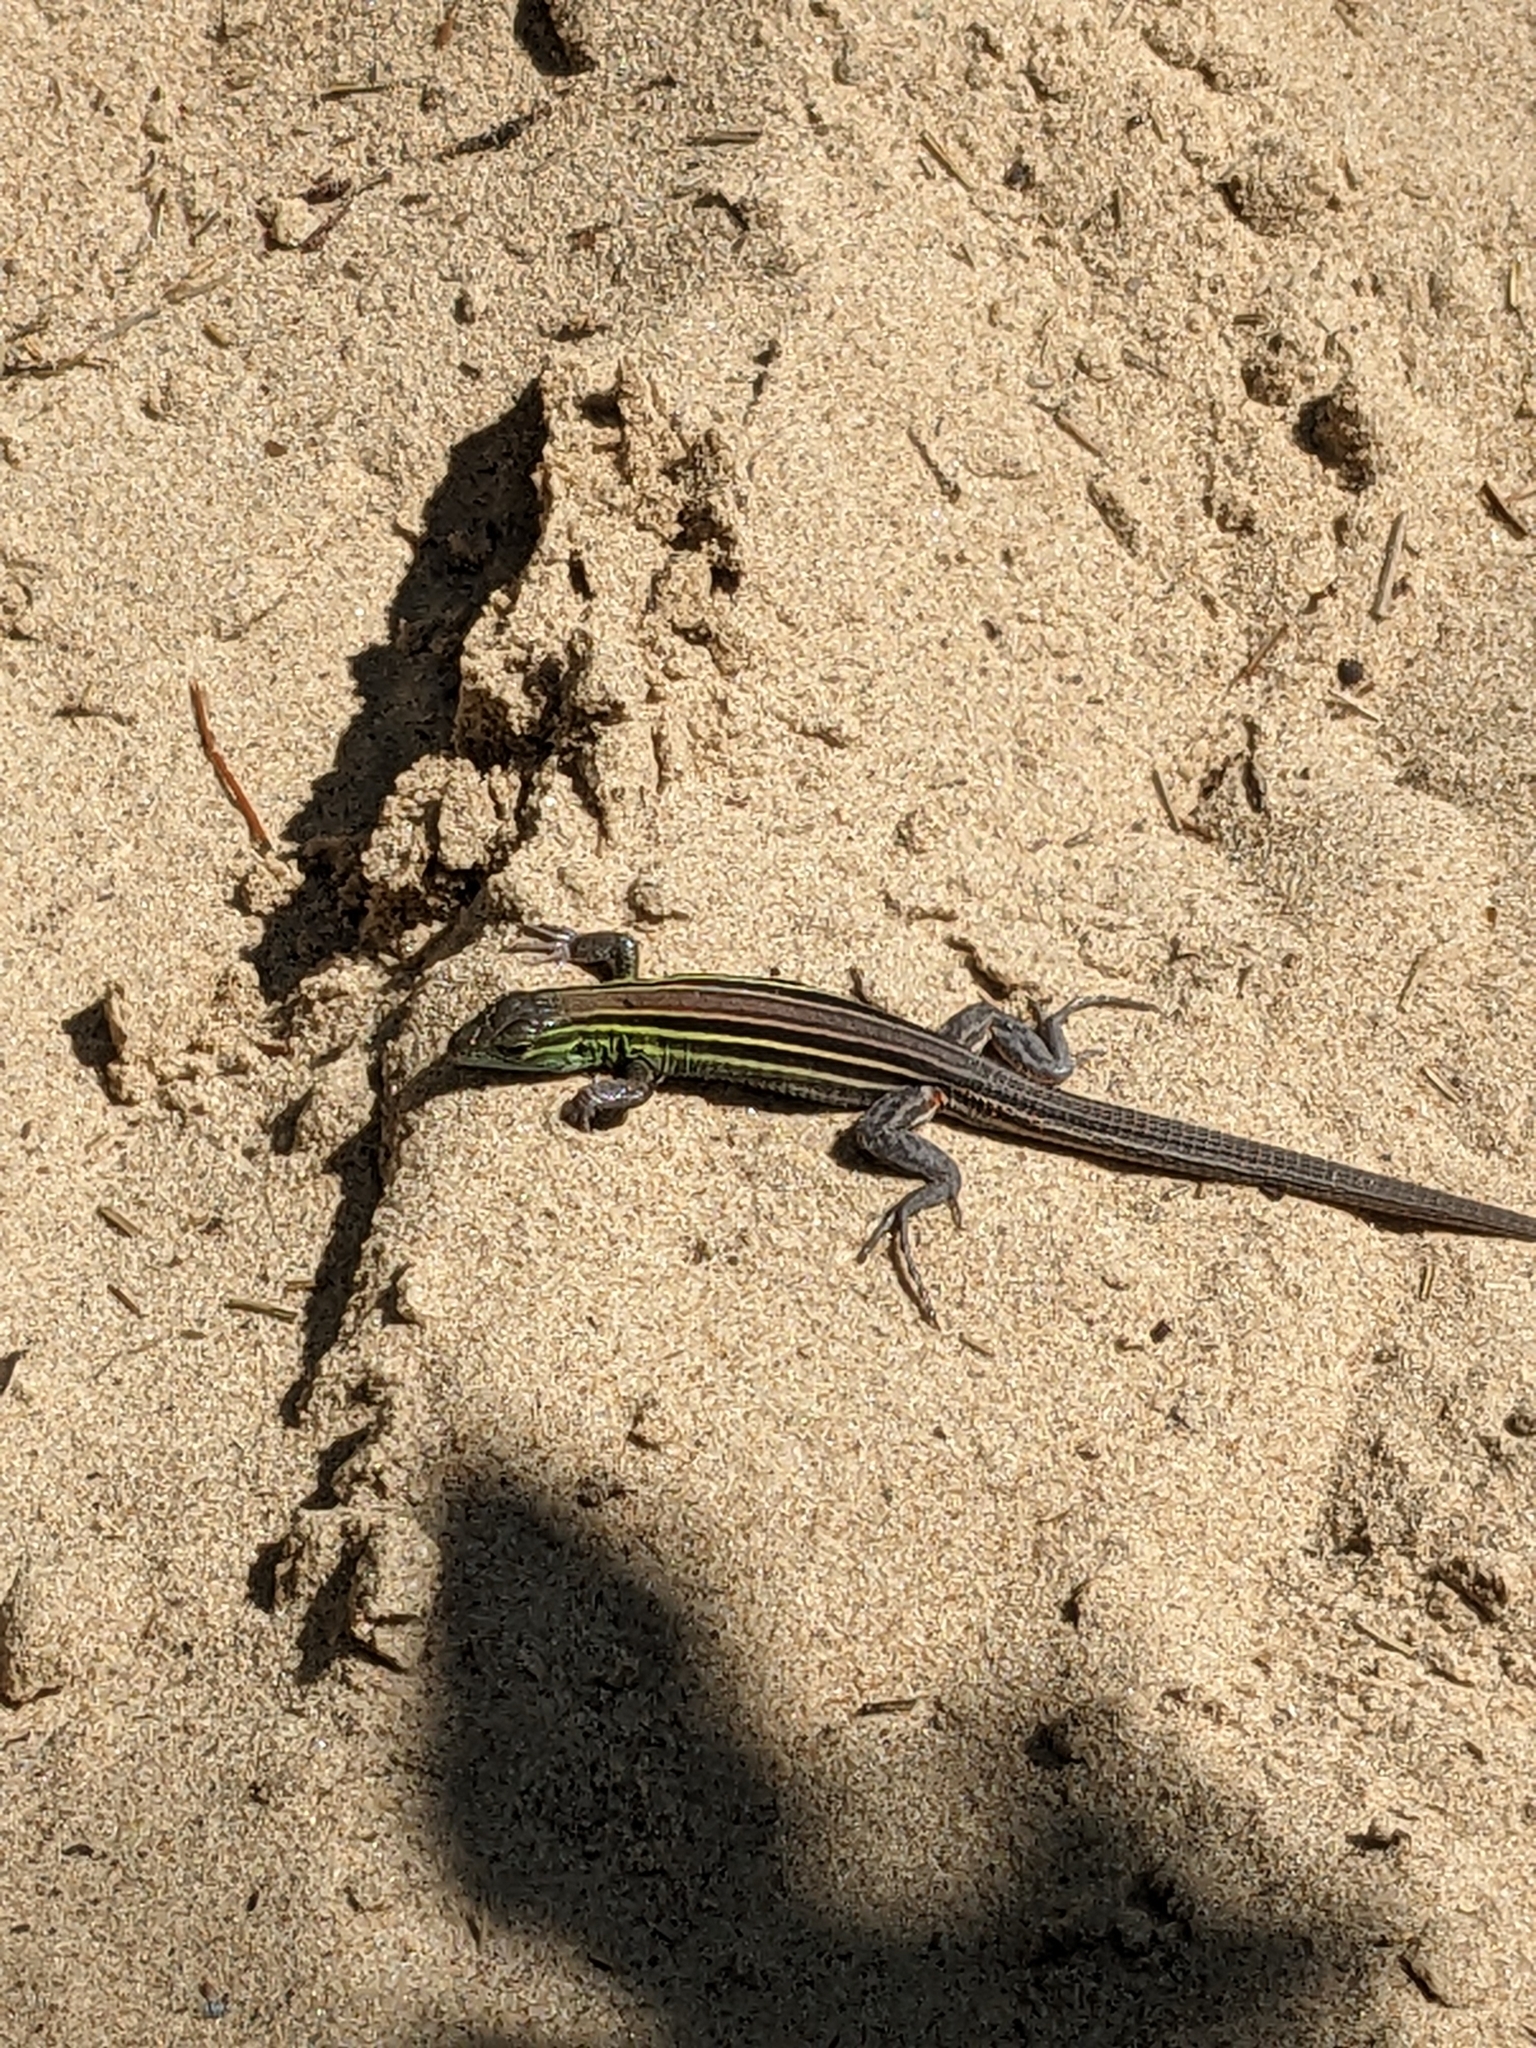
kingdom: Animalia
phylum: Chordata
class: Squamata
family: Teiidae
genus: Aspidoscelis
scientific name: Aspidoscelis sexlineatus
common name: Six-lined racerunner
